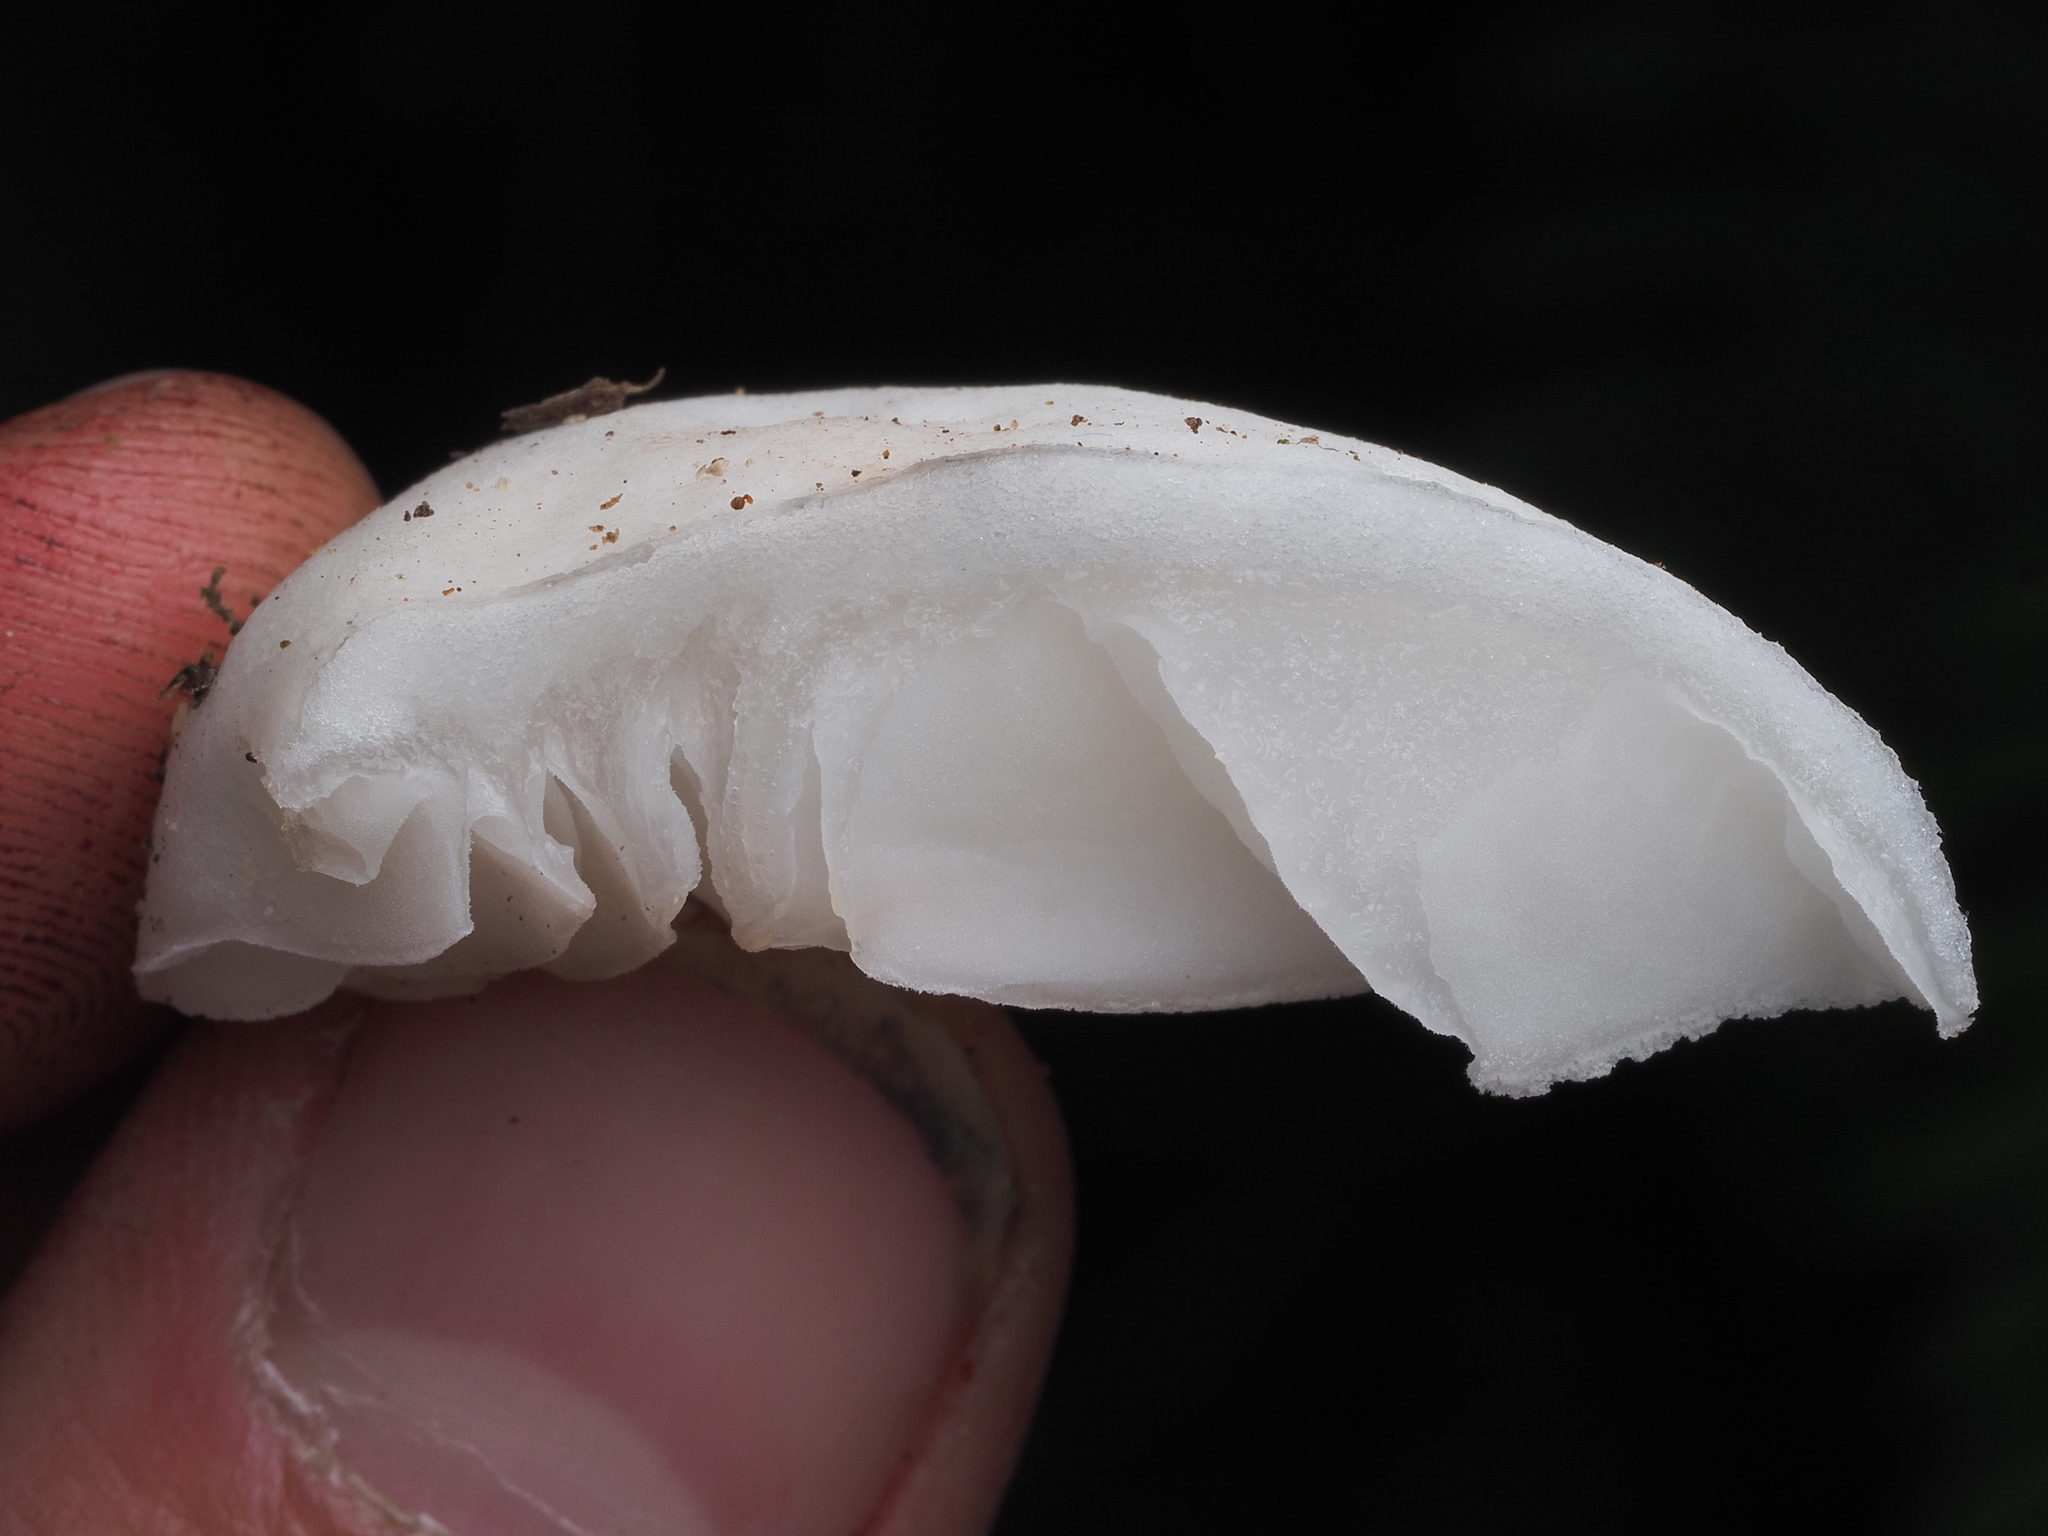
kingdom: Fungi
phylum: Basidiomycota
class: Agaricomycetes
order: Agaricales
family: Physalacriaceae
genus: Oudemansiella
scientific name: Oudemansiella australis
